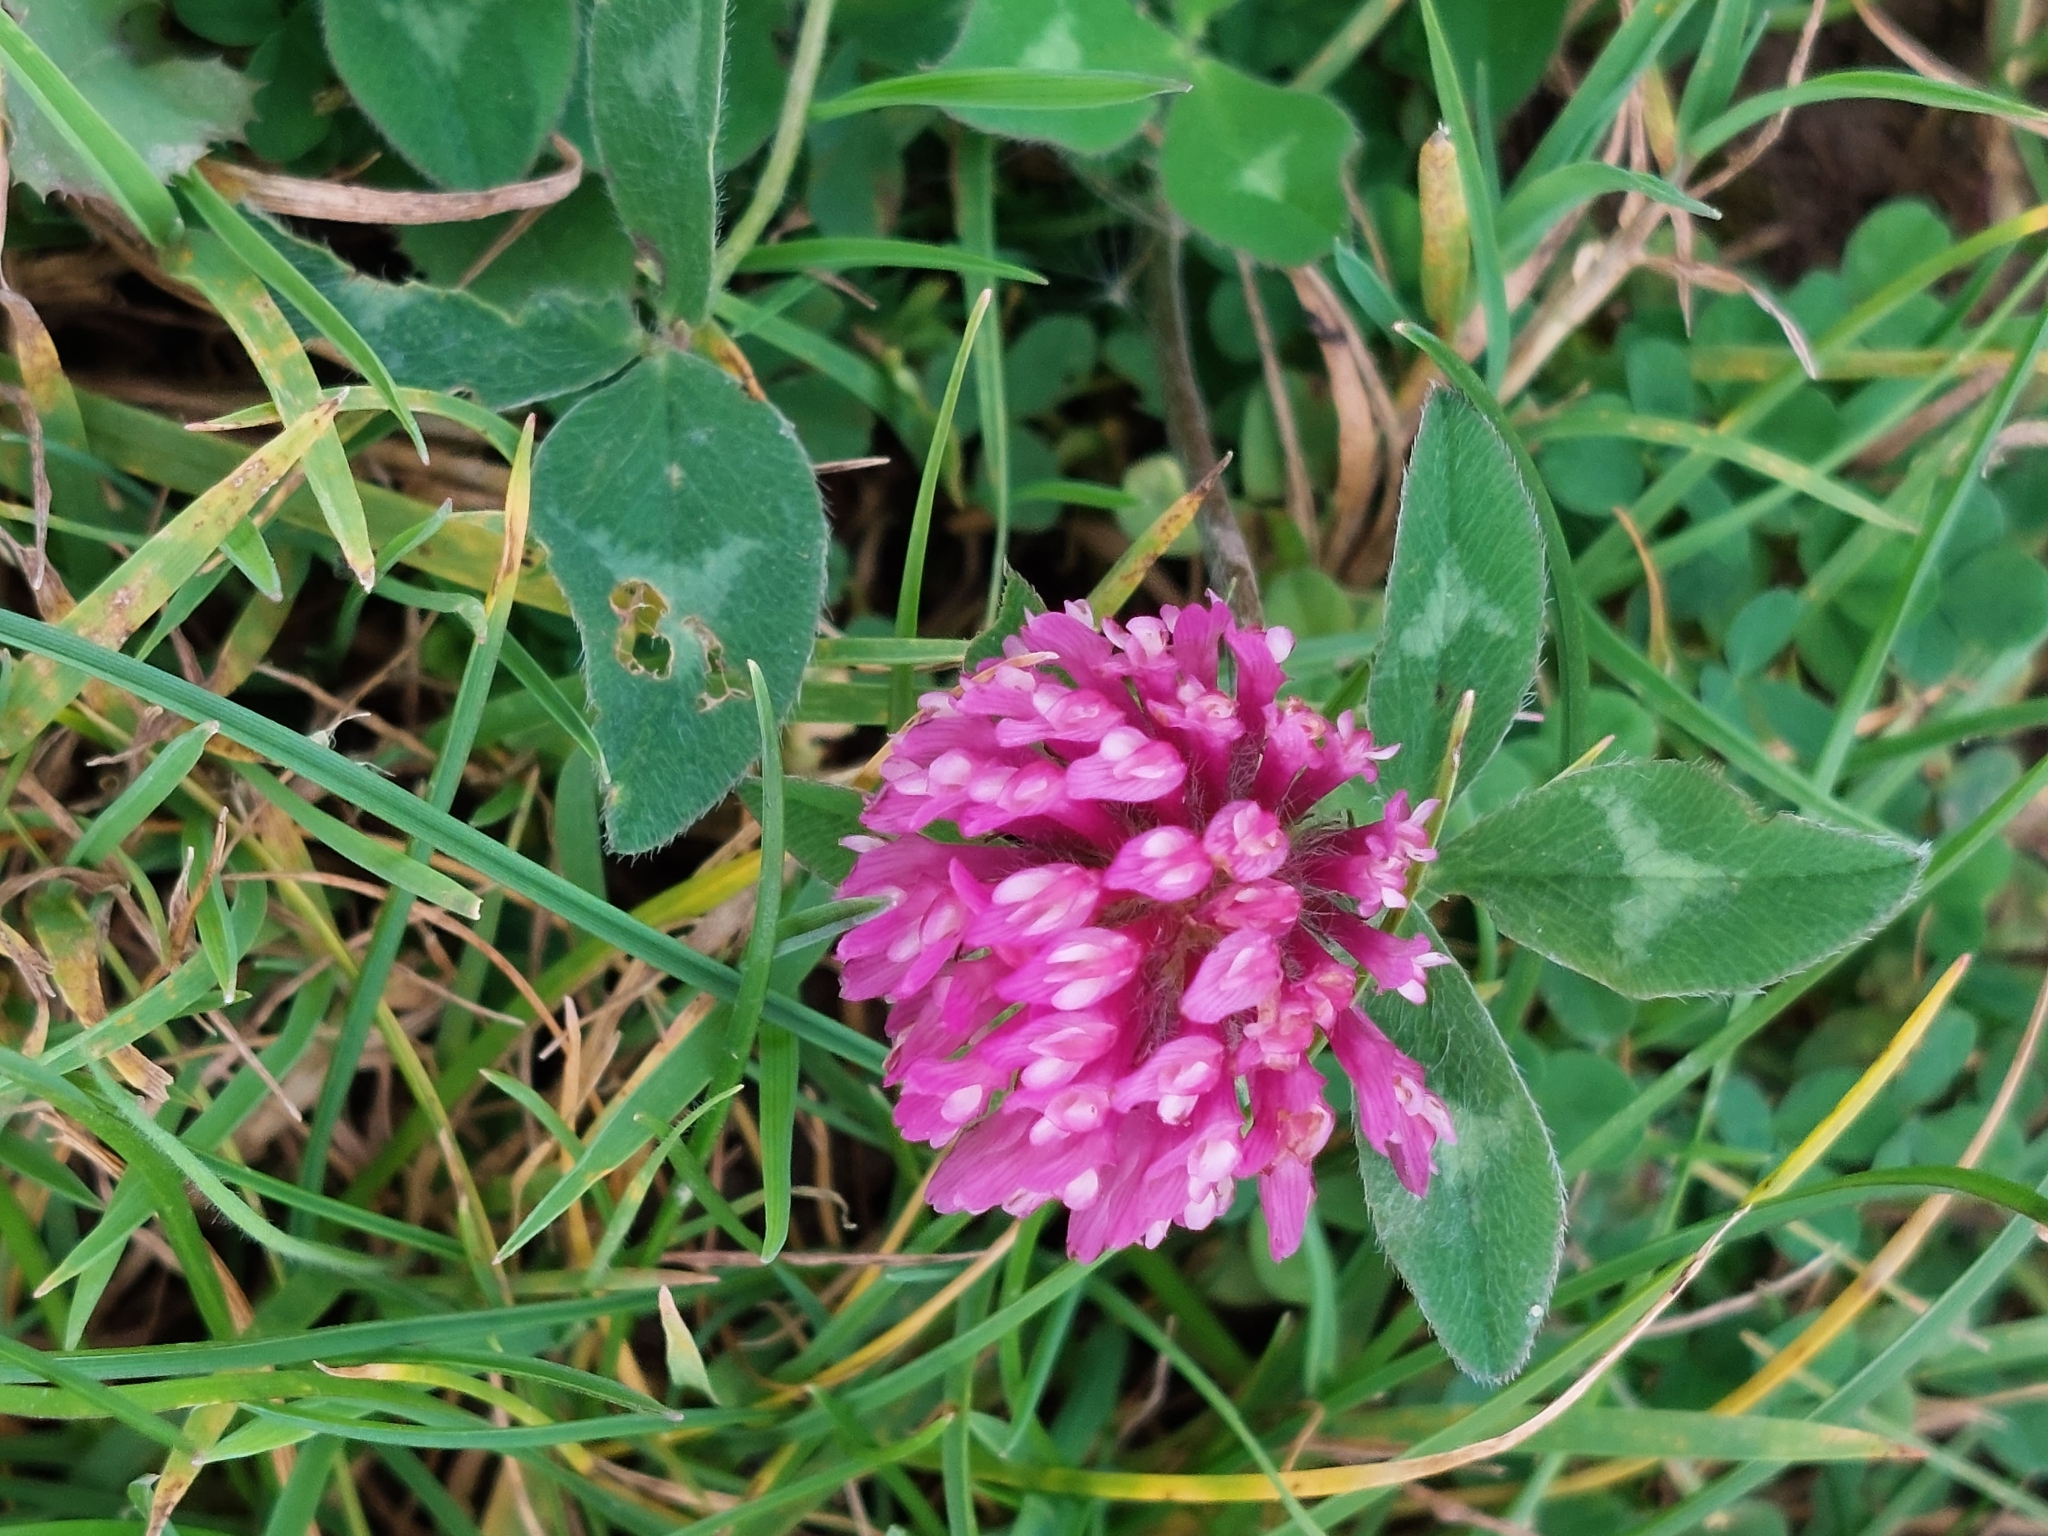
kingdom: Plantae
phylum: Tracheophyta
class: Magnoliopsida
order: Fabales
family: Fabaceae
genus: Trifolium
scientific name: Trifolium pratense
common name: Red clover
